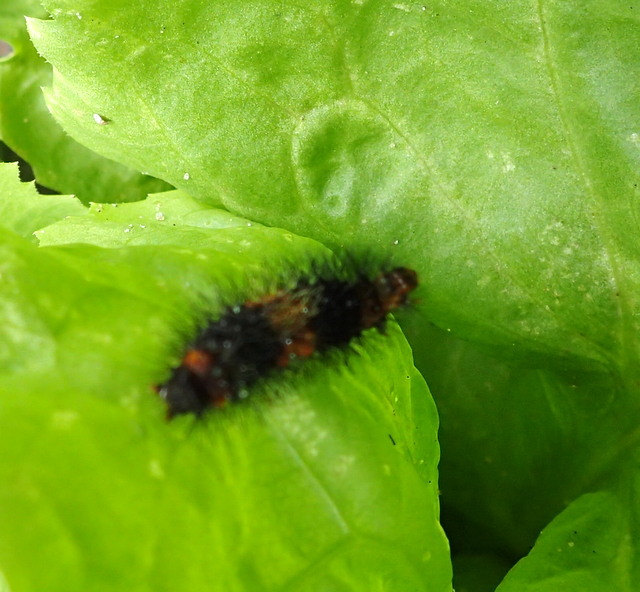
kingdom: Animalia
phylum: Arthropoda
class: Insecta
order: Lepidoptera
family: Erebidae
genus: Hypercompe
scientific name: Hypercompe scribonia
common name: Giant leopard moth
